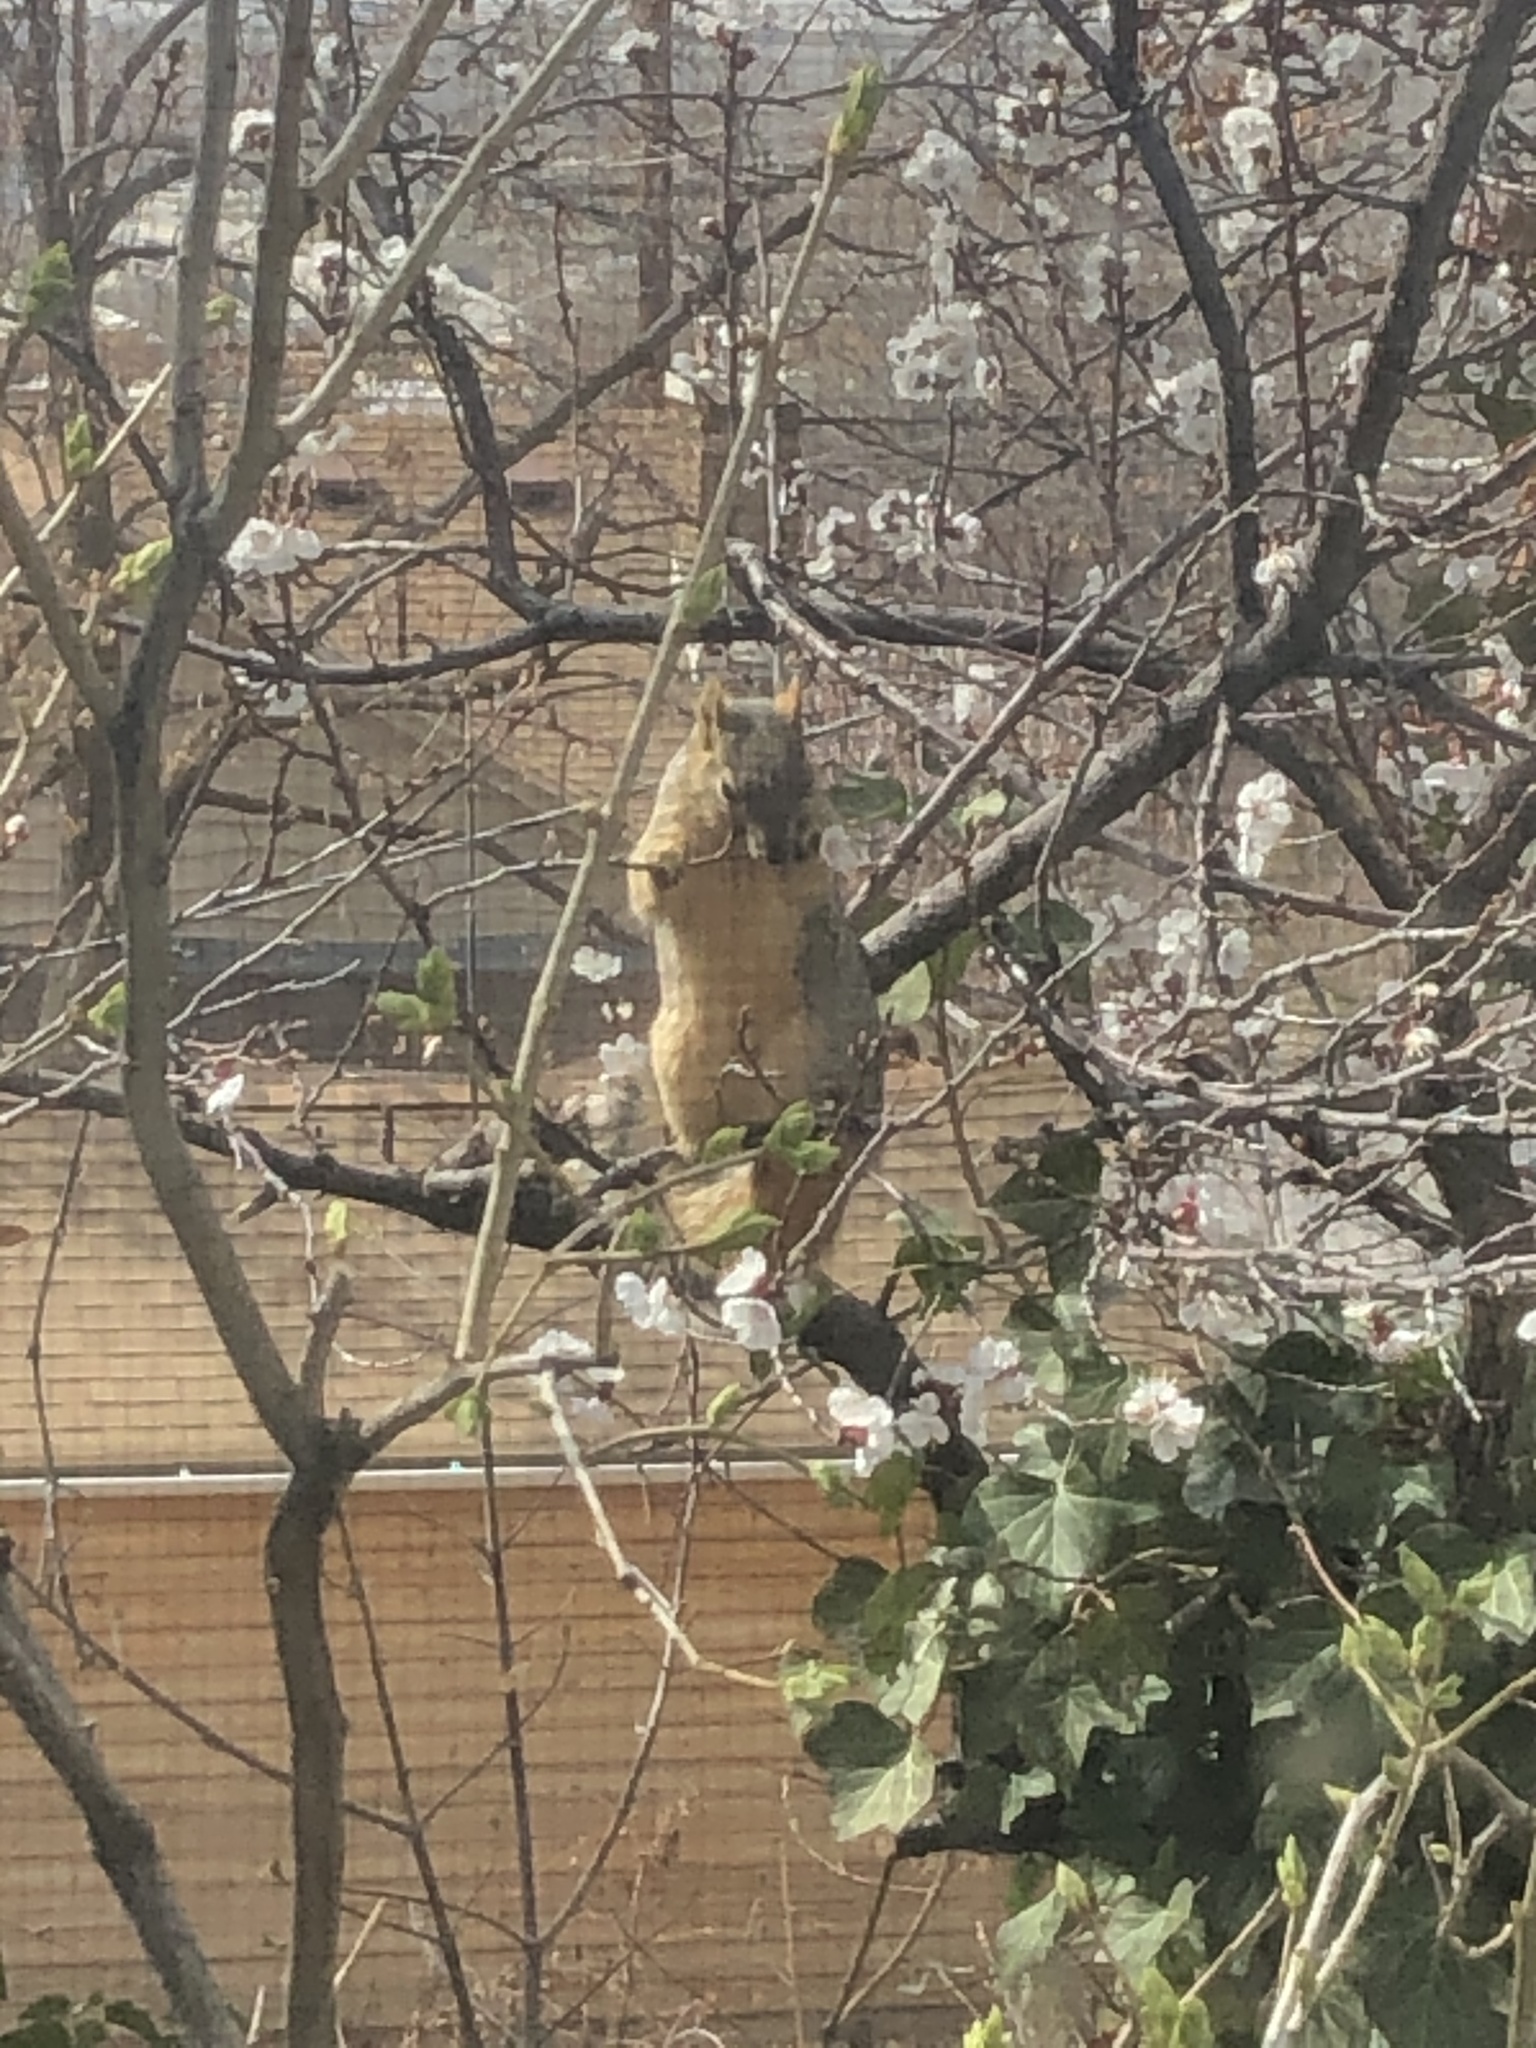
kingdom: Animalia
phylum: Chordata
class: Mammalia
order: Rodentia
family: Sciuridae
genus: Sciurus
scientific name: Sciurus niger
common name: Fox squirrel
